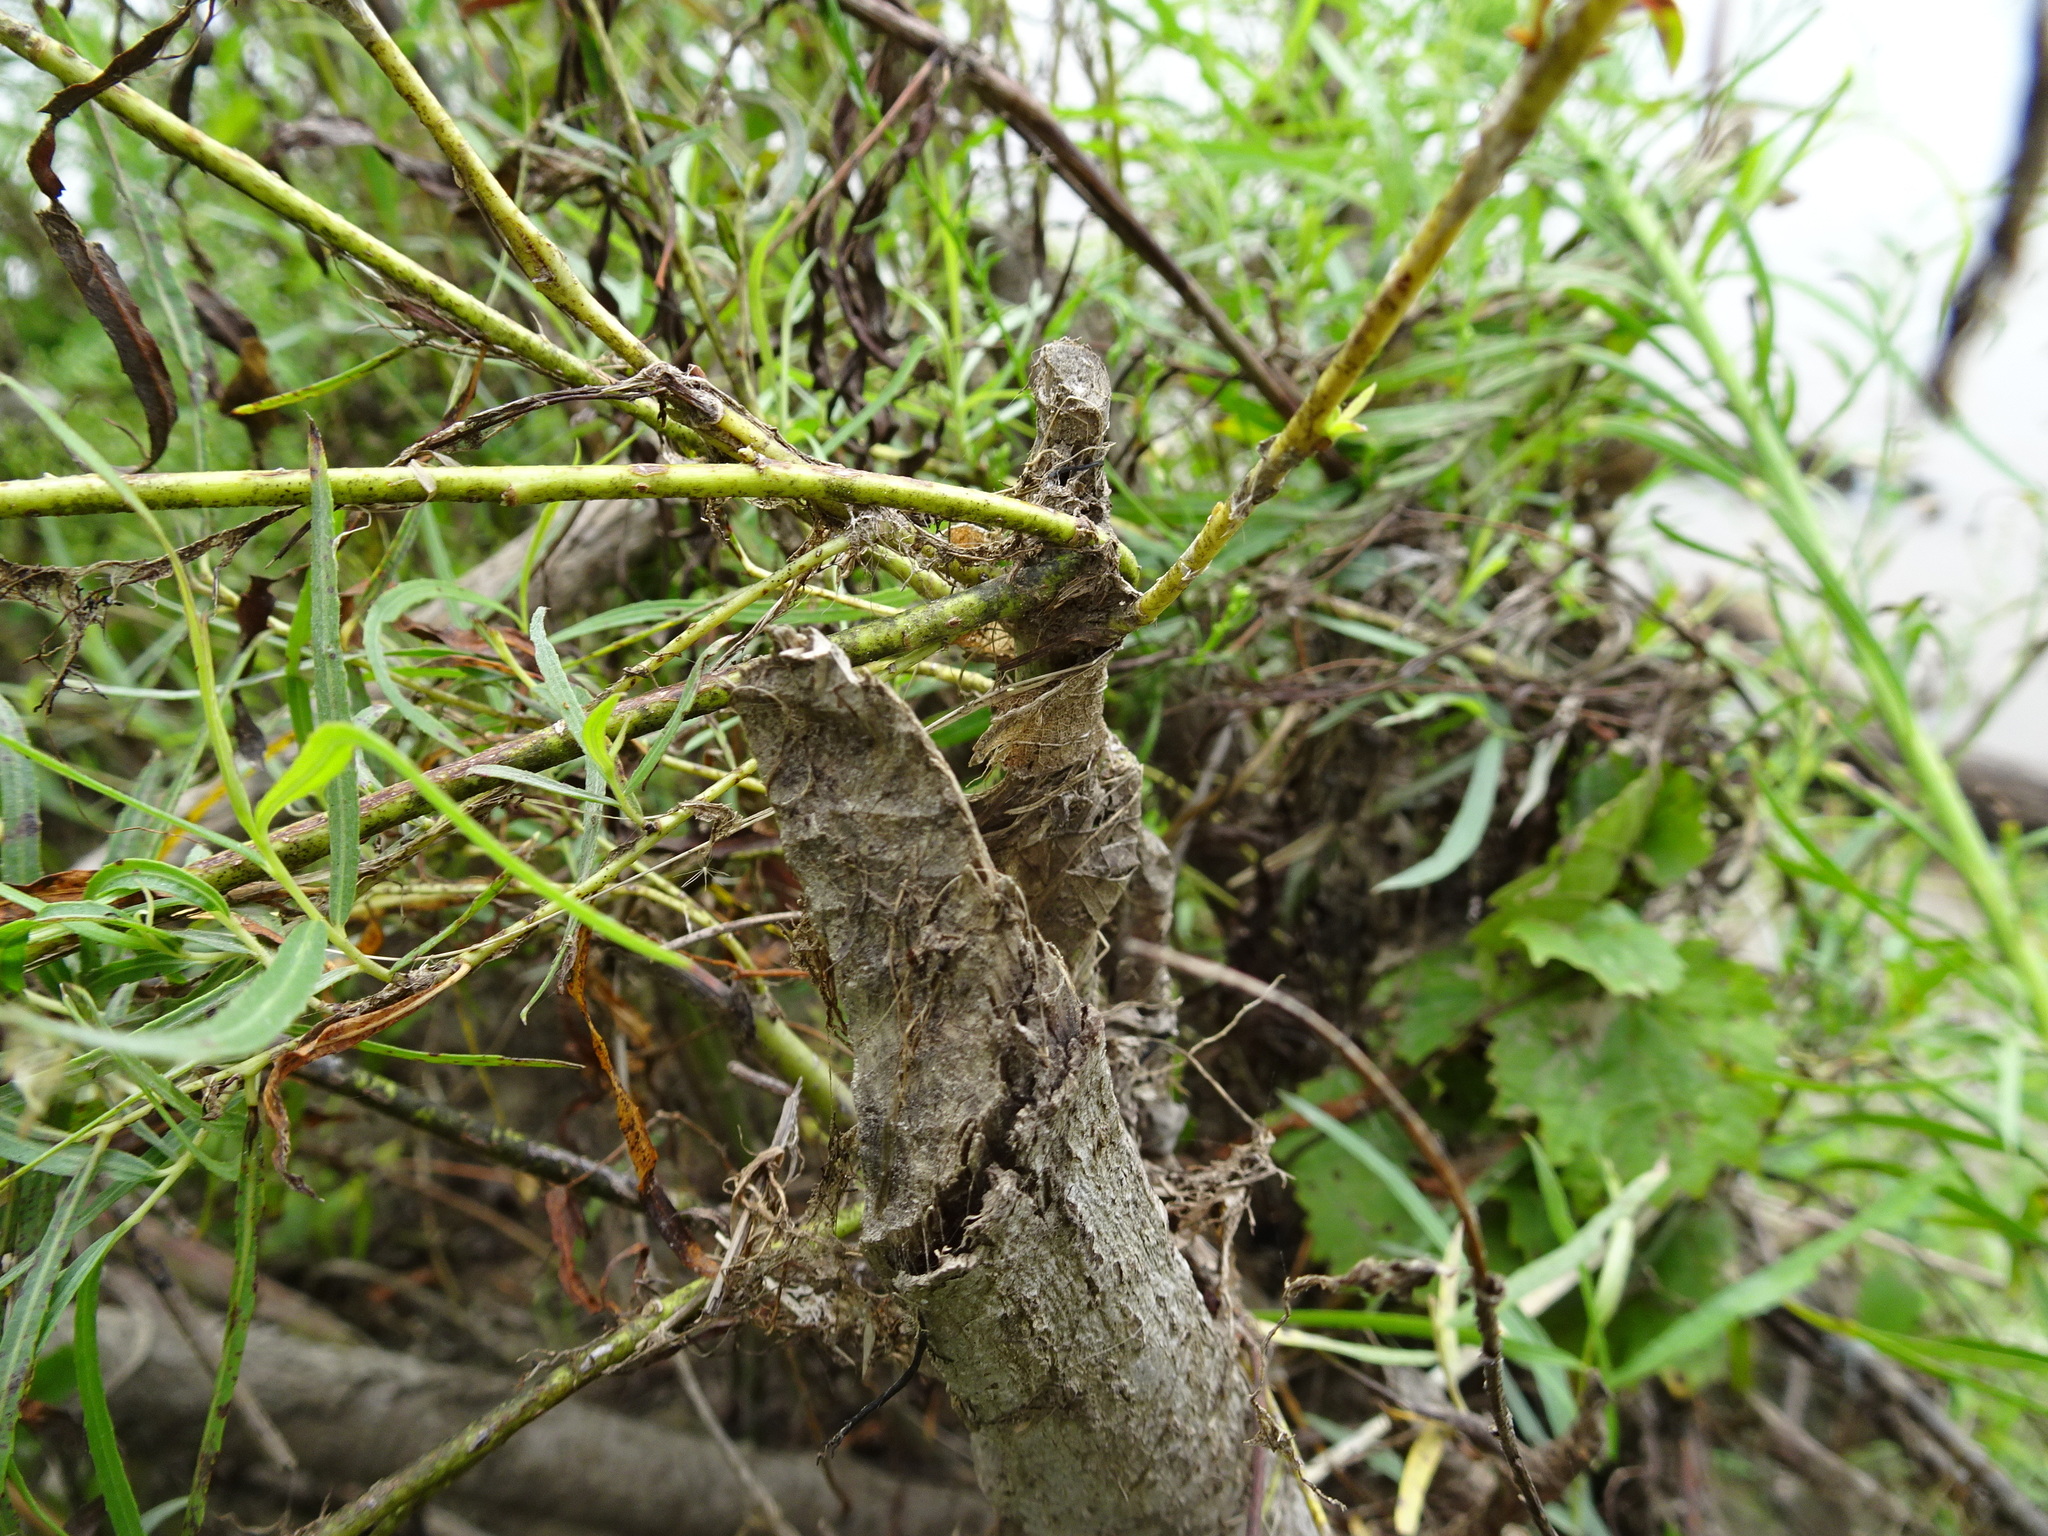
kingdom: Animalia
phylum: Chordata
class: Mammalia
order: Rodentia
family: Castoridae
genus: Castor
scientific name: Castor canadensis
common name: American beaver
